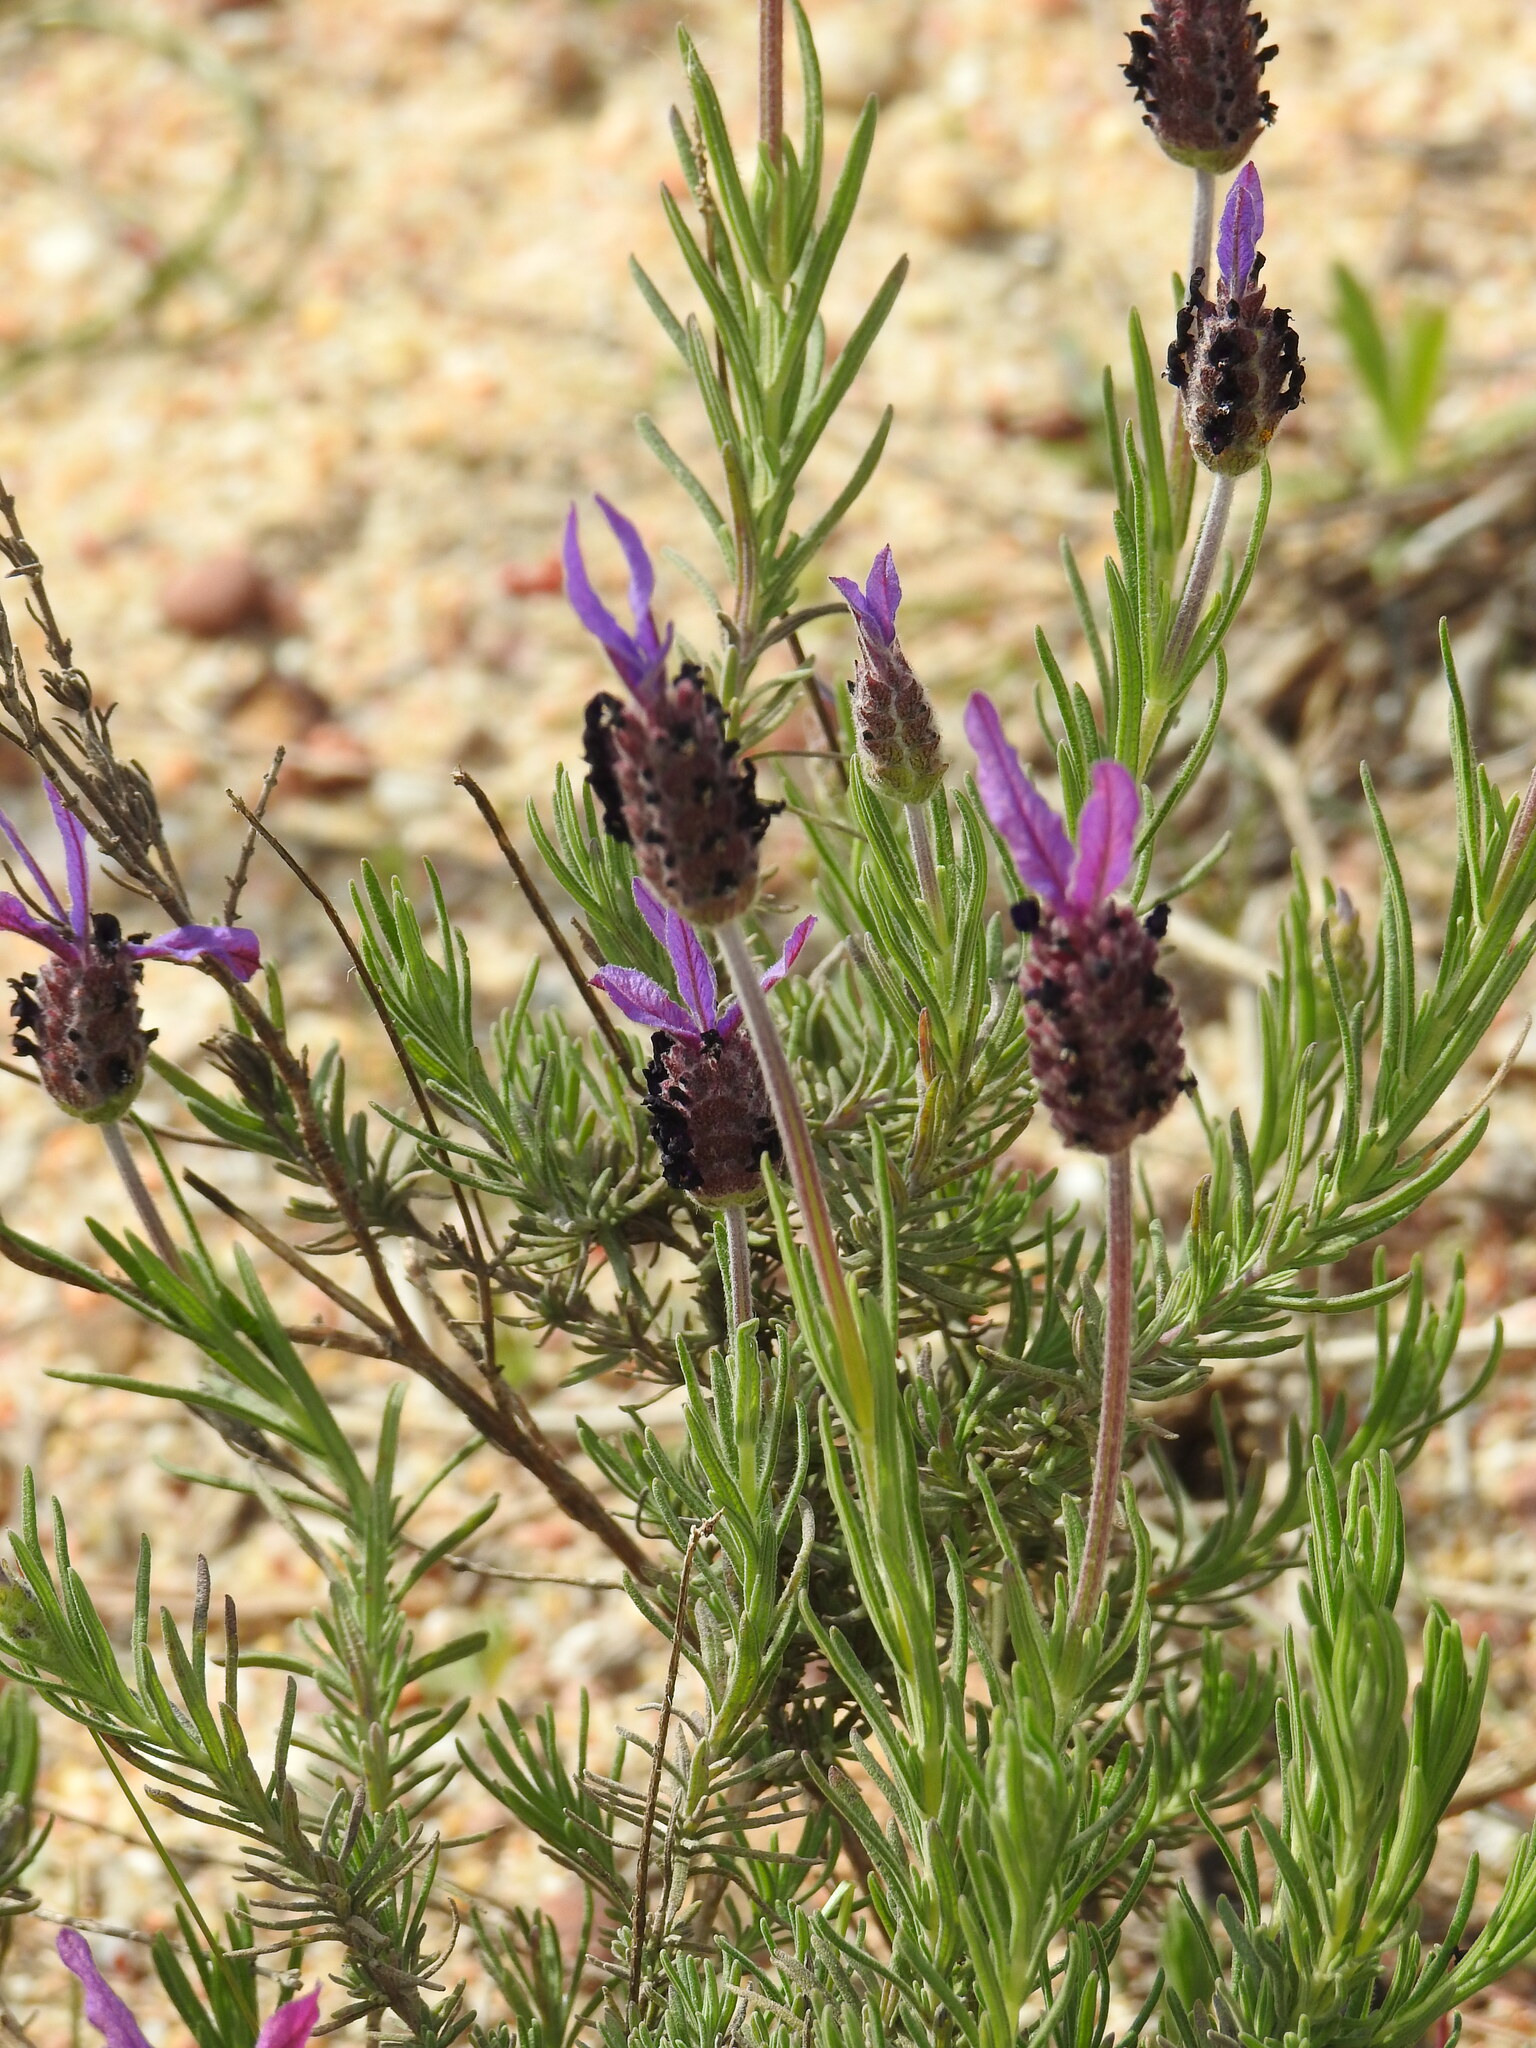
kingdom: Plantae
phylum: Tracheophyta
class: Magnoliopsida
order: Lamiales
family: Lamiaceae
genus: Lavandula
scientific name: Lavandula pedunculata
